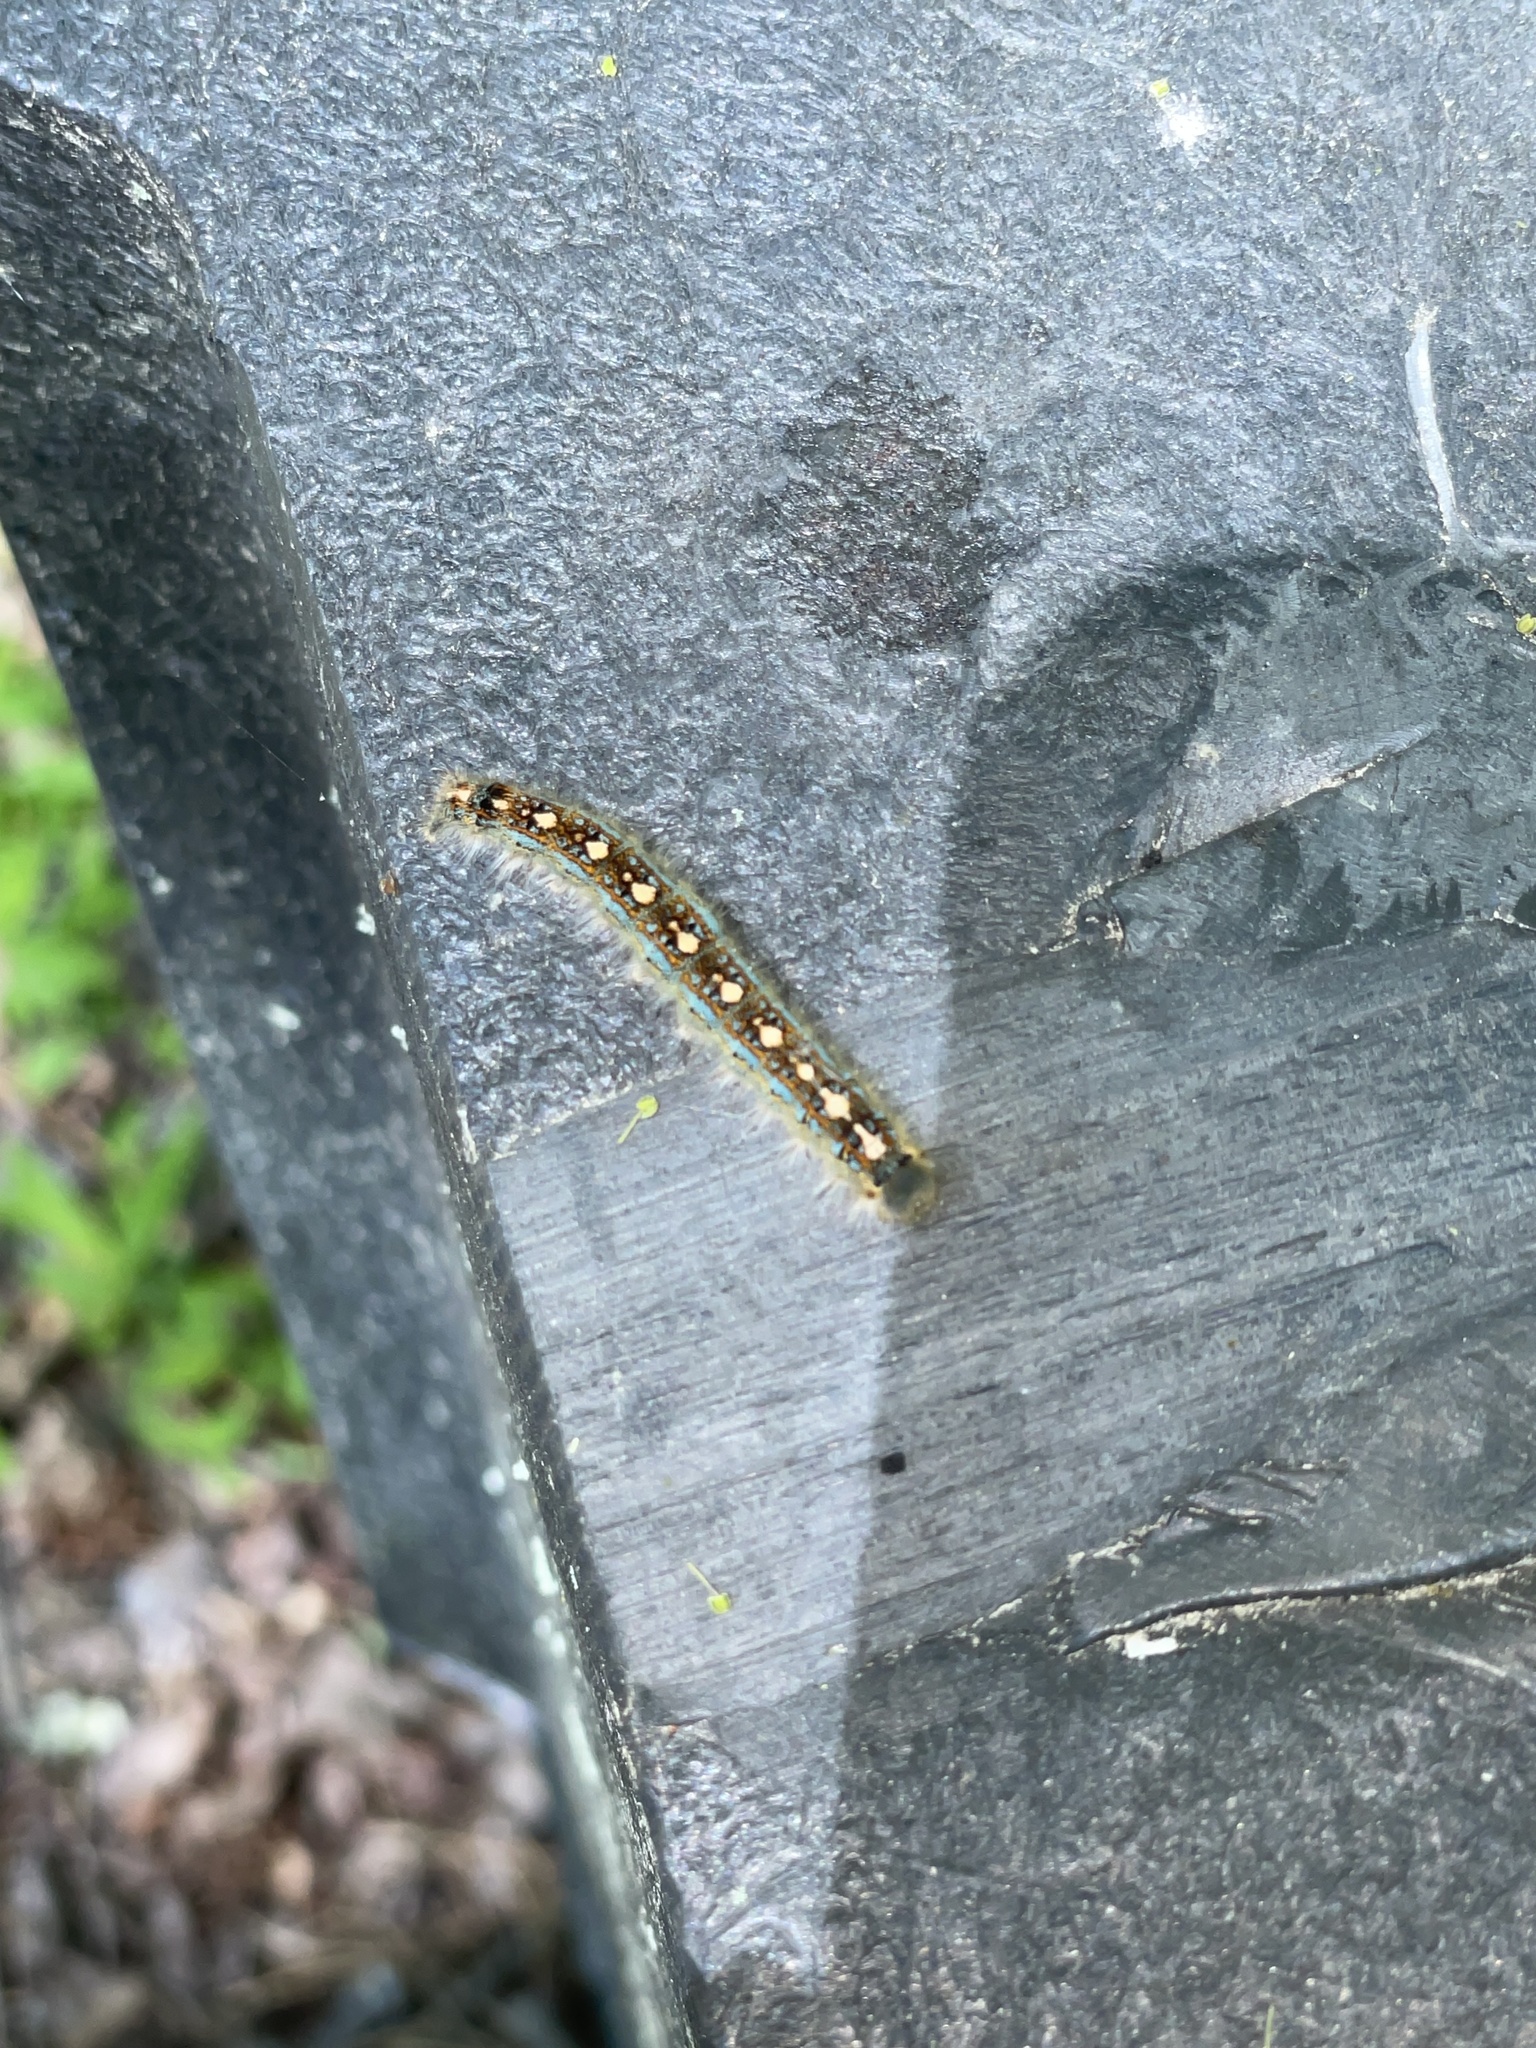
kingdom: Animalia
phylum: Arthropoda
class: Insecta
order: Lepidoptera
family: Lasiocampidae
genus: Malacosoma
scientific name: Malacosoma disstria
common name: Forest tent caterpillar
